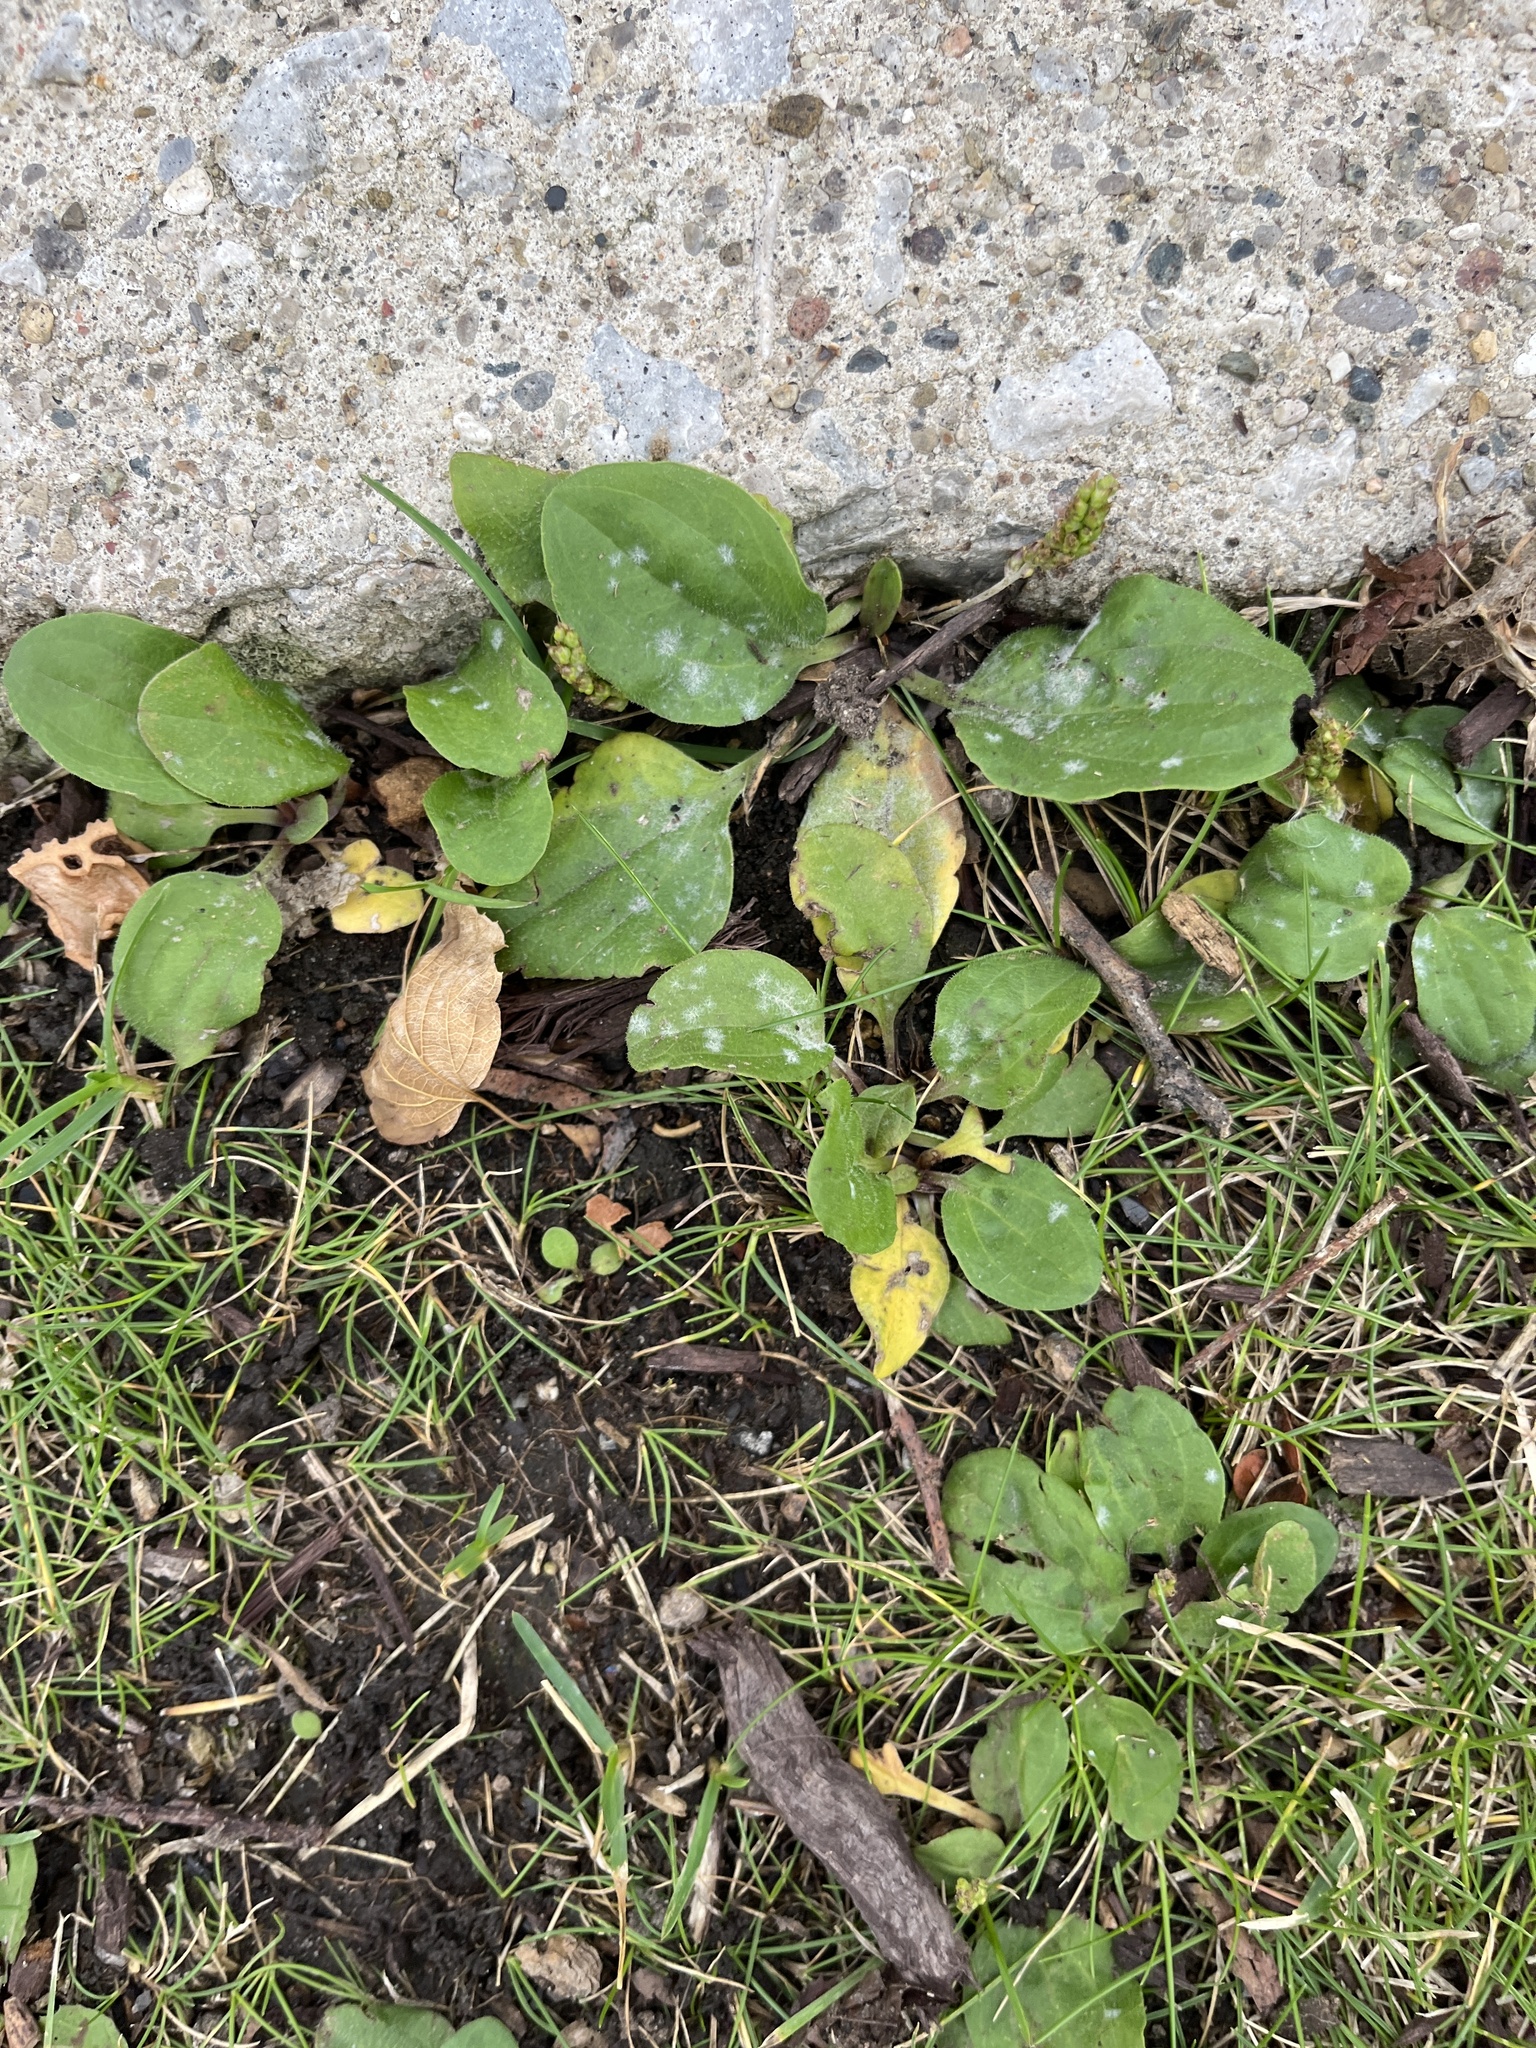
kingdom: Plantae
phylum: Tracheophyta
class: Magnoliopsida
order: Lamiales
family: Plantaginaceae
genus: Plantago
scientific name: Plantago major
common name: Common plantain
